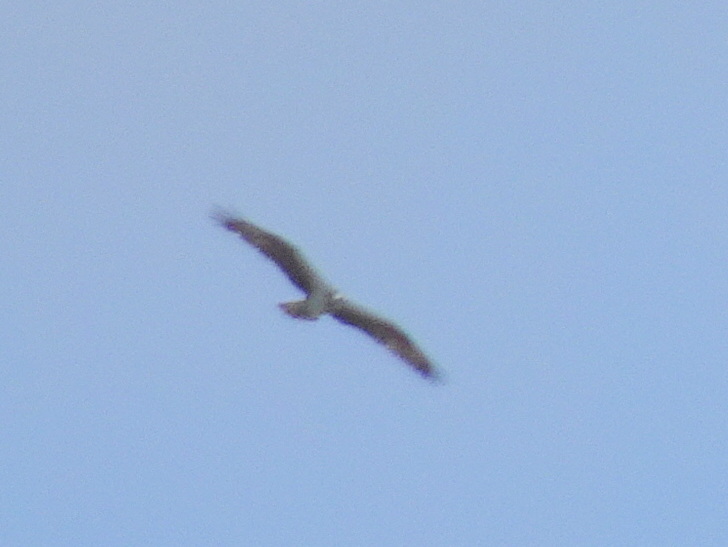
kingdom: Animalia
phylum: Chordata
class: Aves
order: Accipitriformes
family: Pandionidae
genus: Pandion
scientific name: Pandion haliaetus
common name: Osprey
